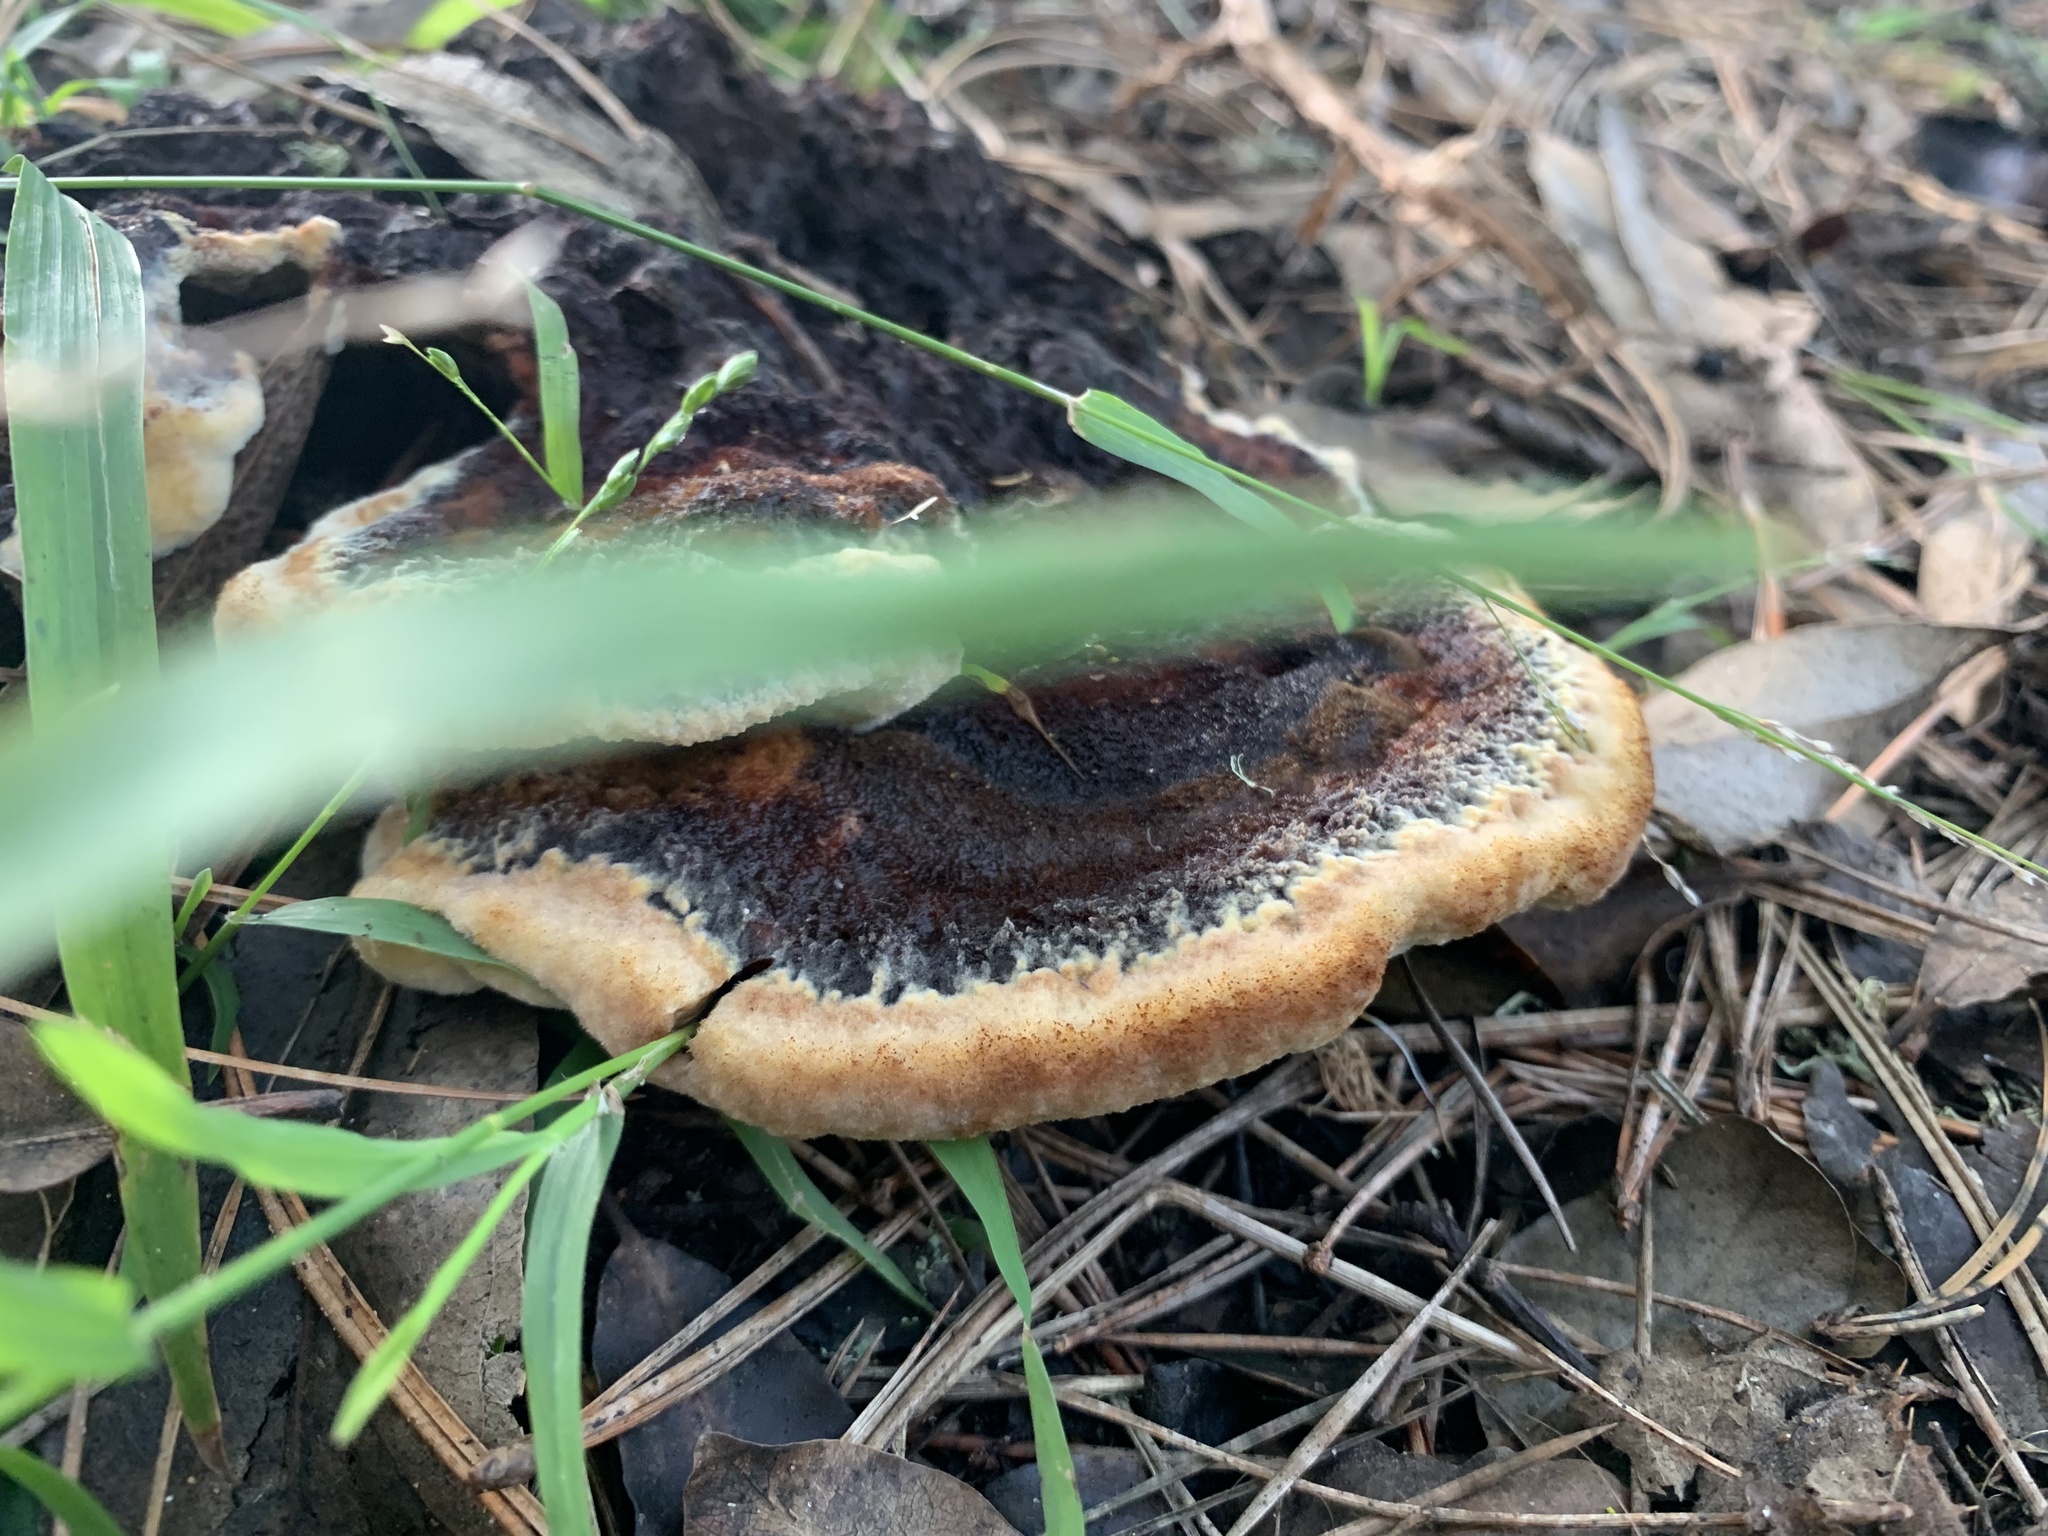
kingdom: Fungi
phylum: Basidiomycota
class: Agaricomycetes
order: Polyporales
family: Laetiporaceae
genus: Phaeolus
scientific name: Phaeolus schweinitzii
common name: Dyer's mazegill
